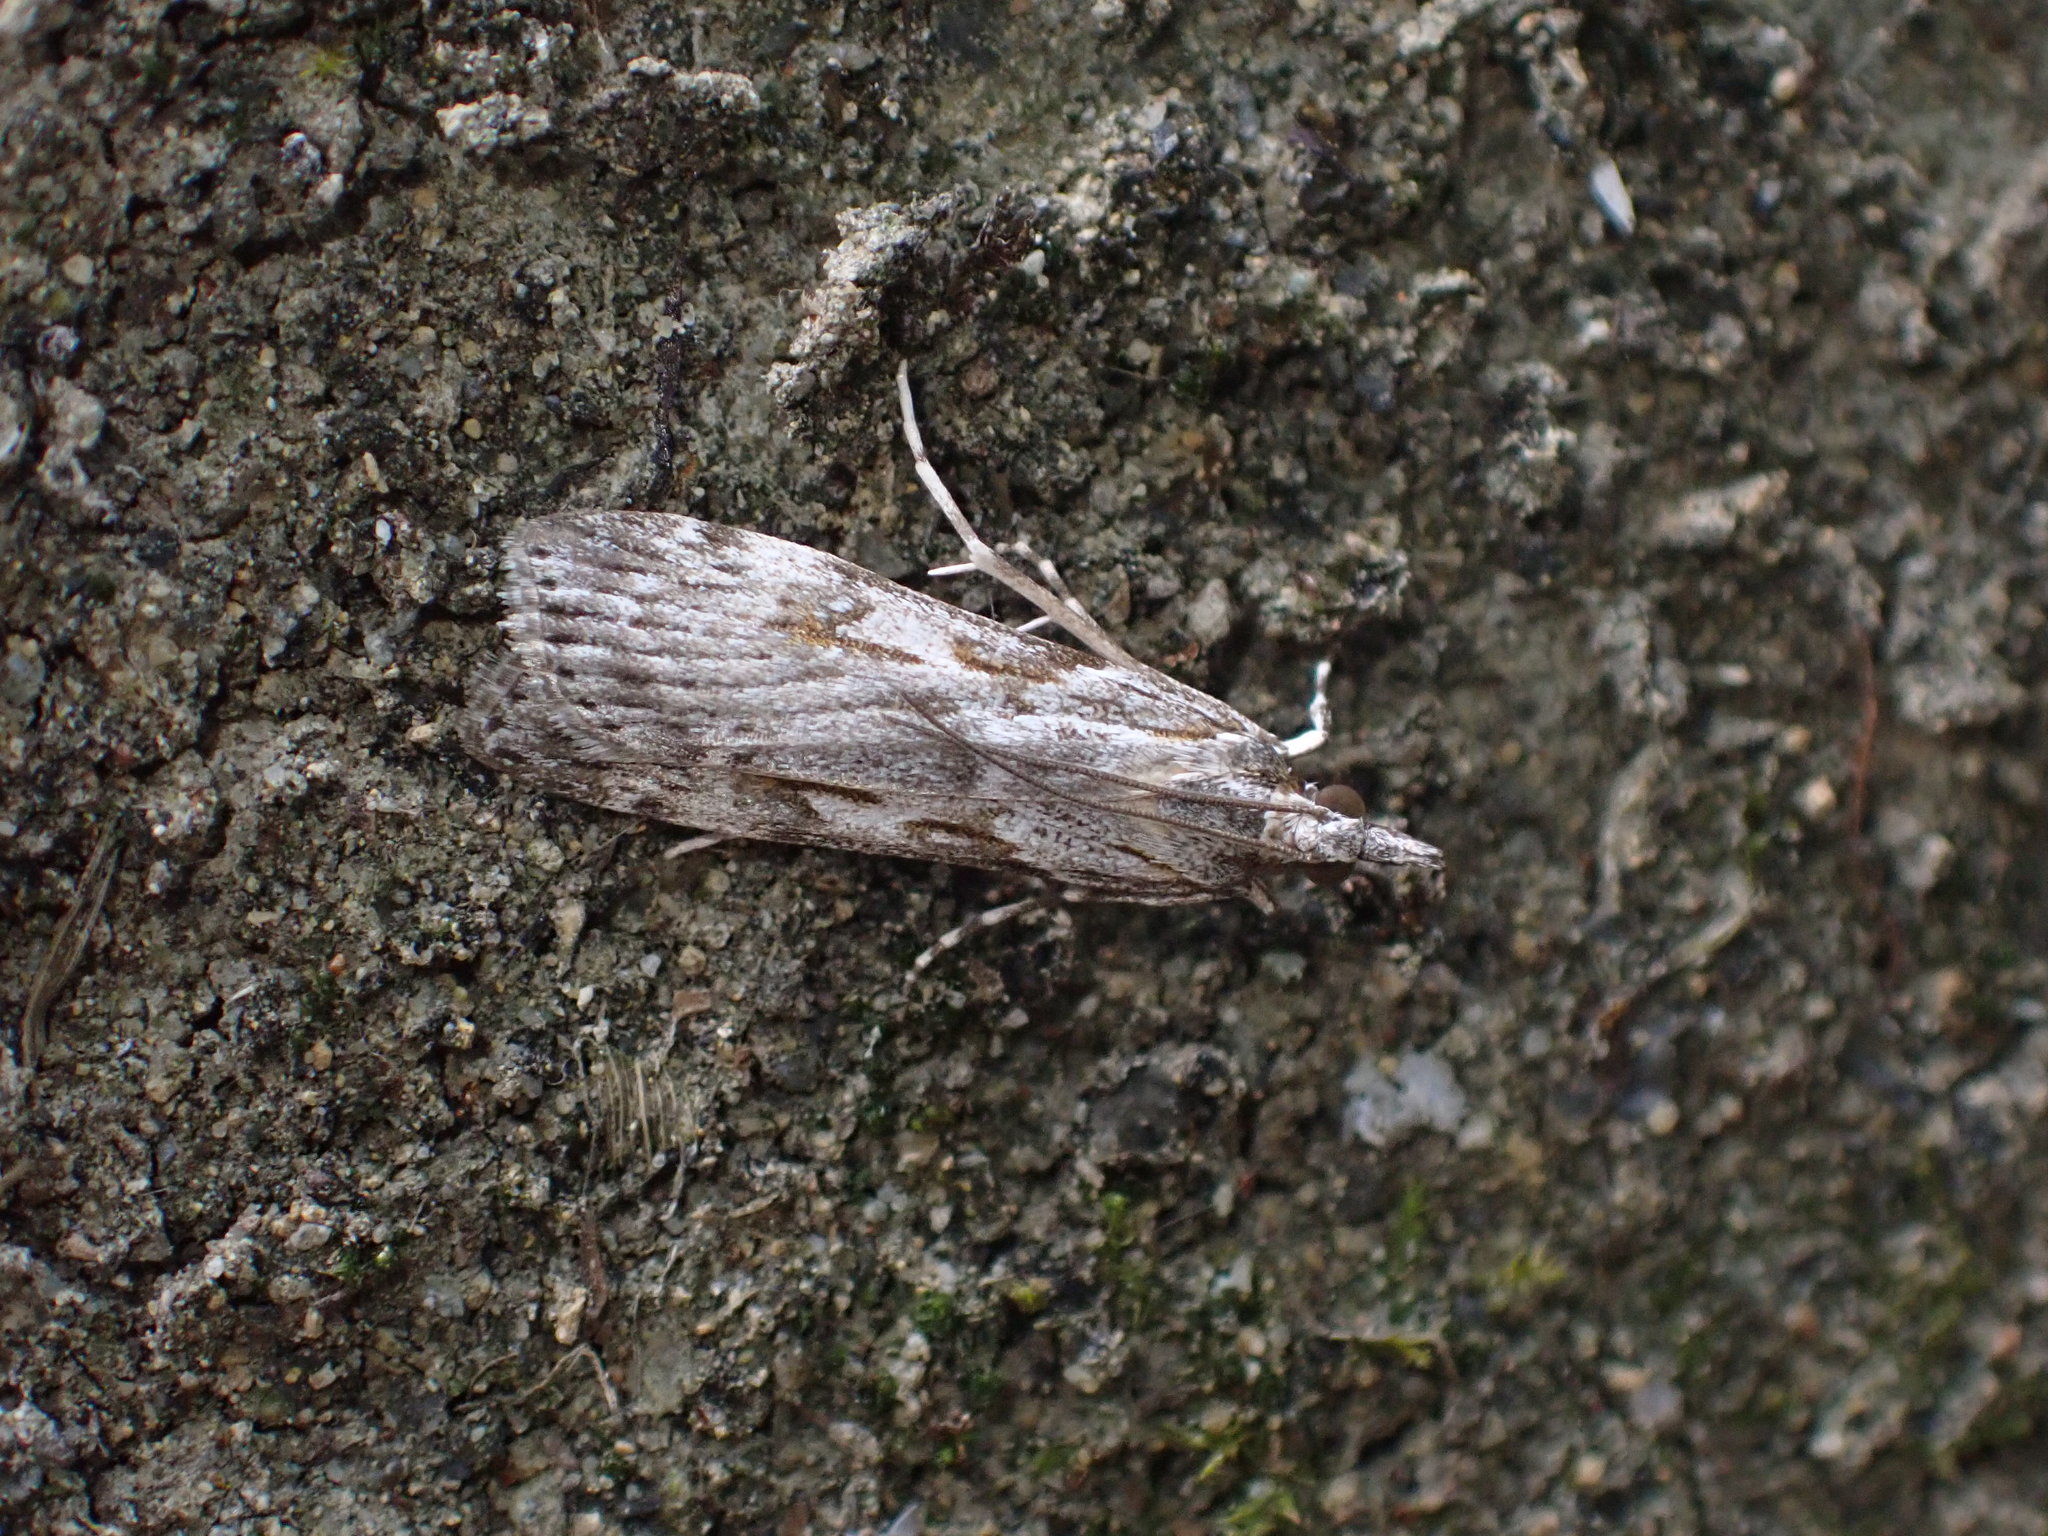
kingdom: Animalia
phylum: Arthropoda
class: Insecta
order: Lepidoptera
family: Crambidae
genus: Scoparia
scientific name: Scoparia halopis
